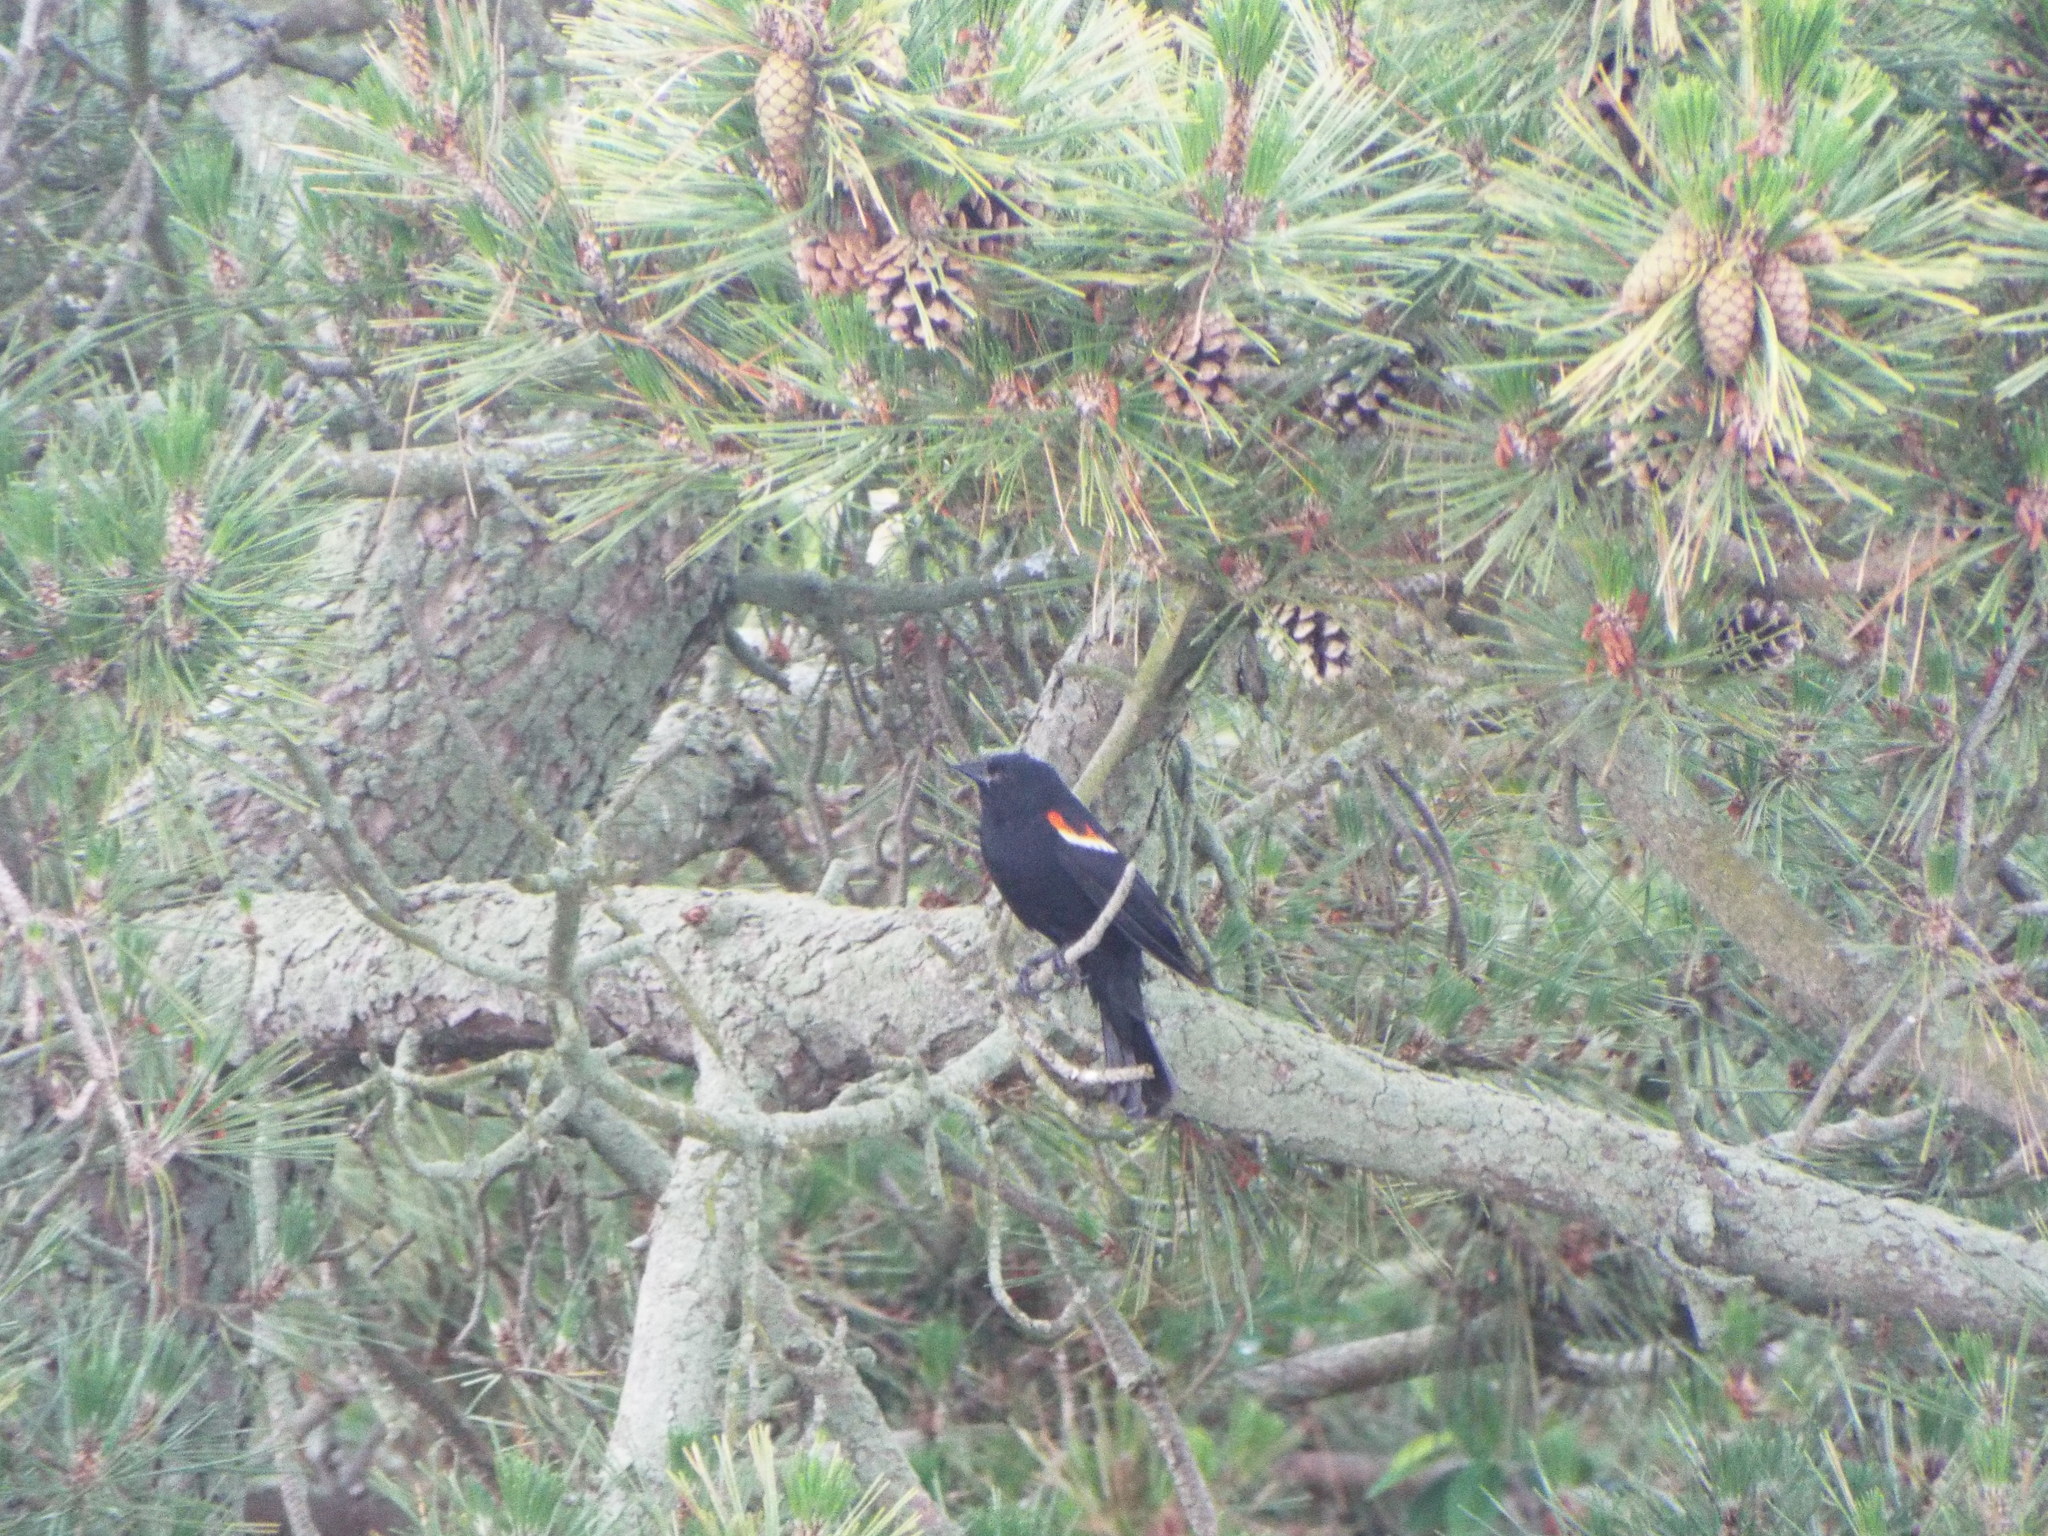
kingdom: Animalia
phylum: Chordata
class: Aves
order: Passeriformes
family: Icteridae
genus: Agelaius
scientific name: Agelaius phoeniceus
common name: Red-winged blackbird
